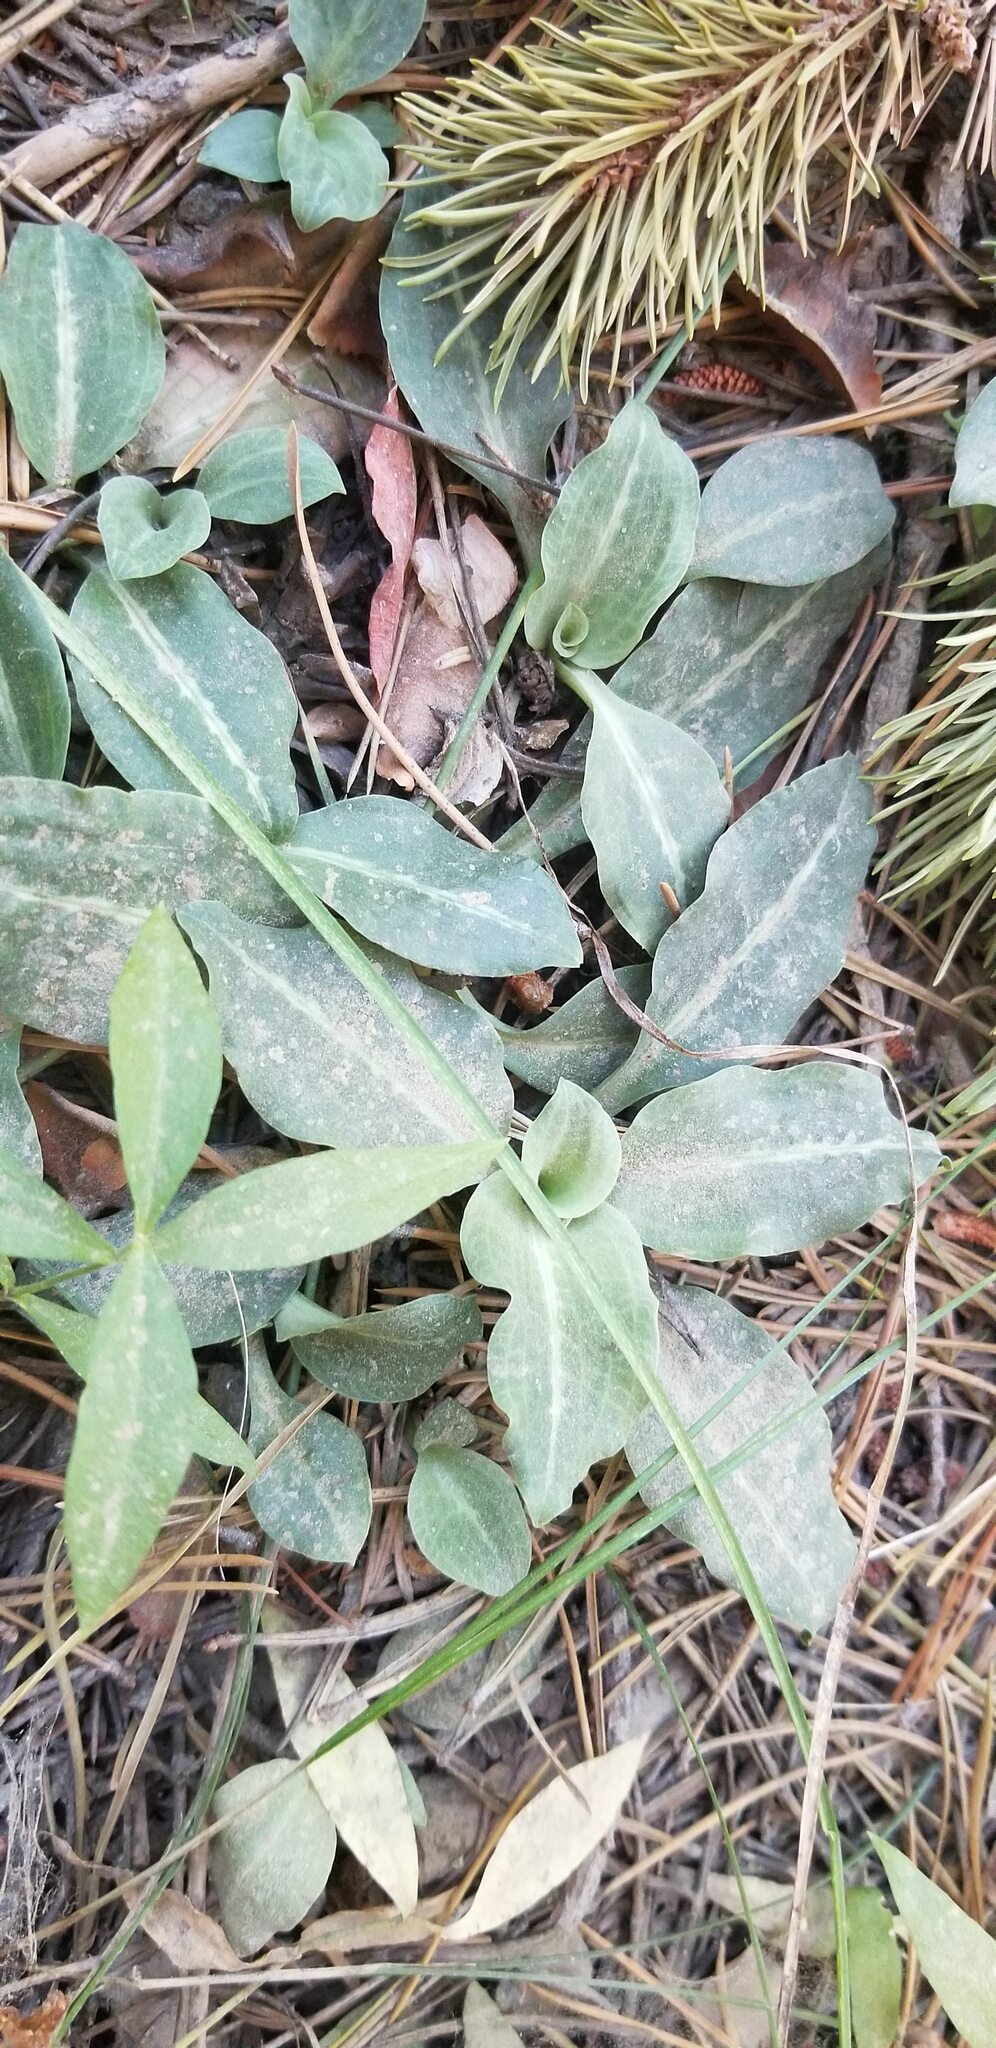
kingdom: Plantae
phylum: Tracheophyta
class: Liliopsida
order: Asparagales
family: Orchidaceae
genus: Goodyera
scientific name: Goodyera oblongifolia
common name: Giant rattlesnake-plantain
